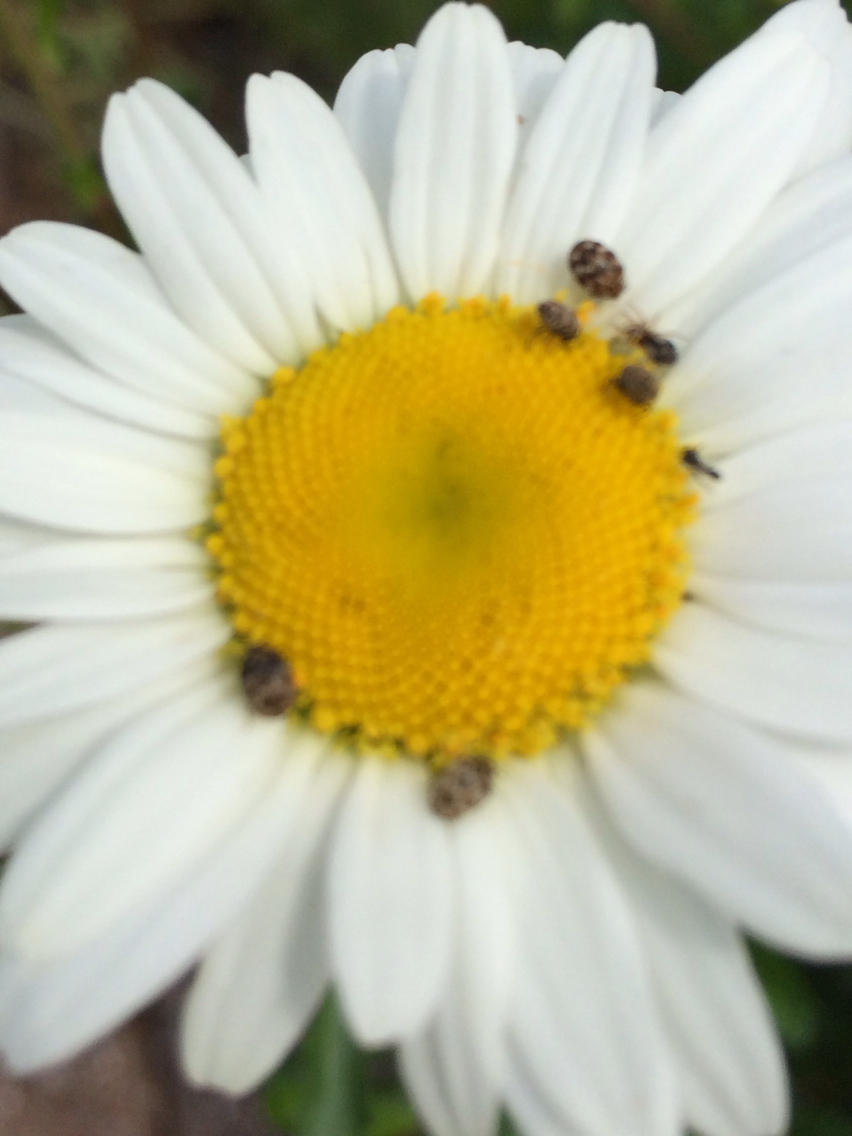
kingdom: Animalia
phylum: Arthropoda
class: Insecta
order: Coleoptera
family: Dermestidae
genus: Anthrenus
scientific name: Anthrenus verbasci
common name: Varied carpet beetle
